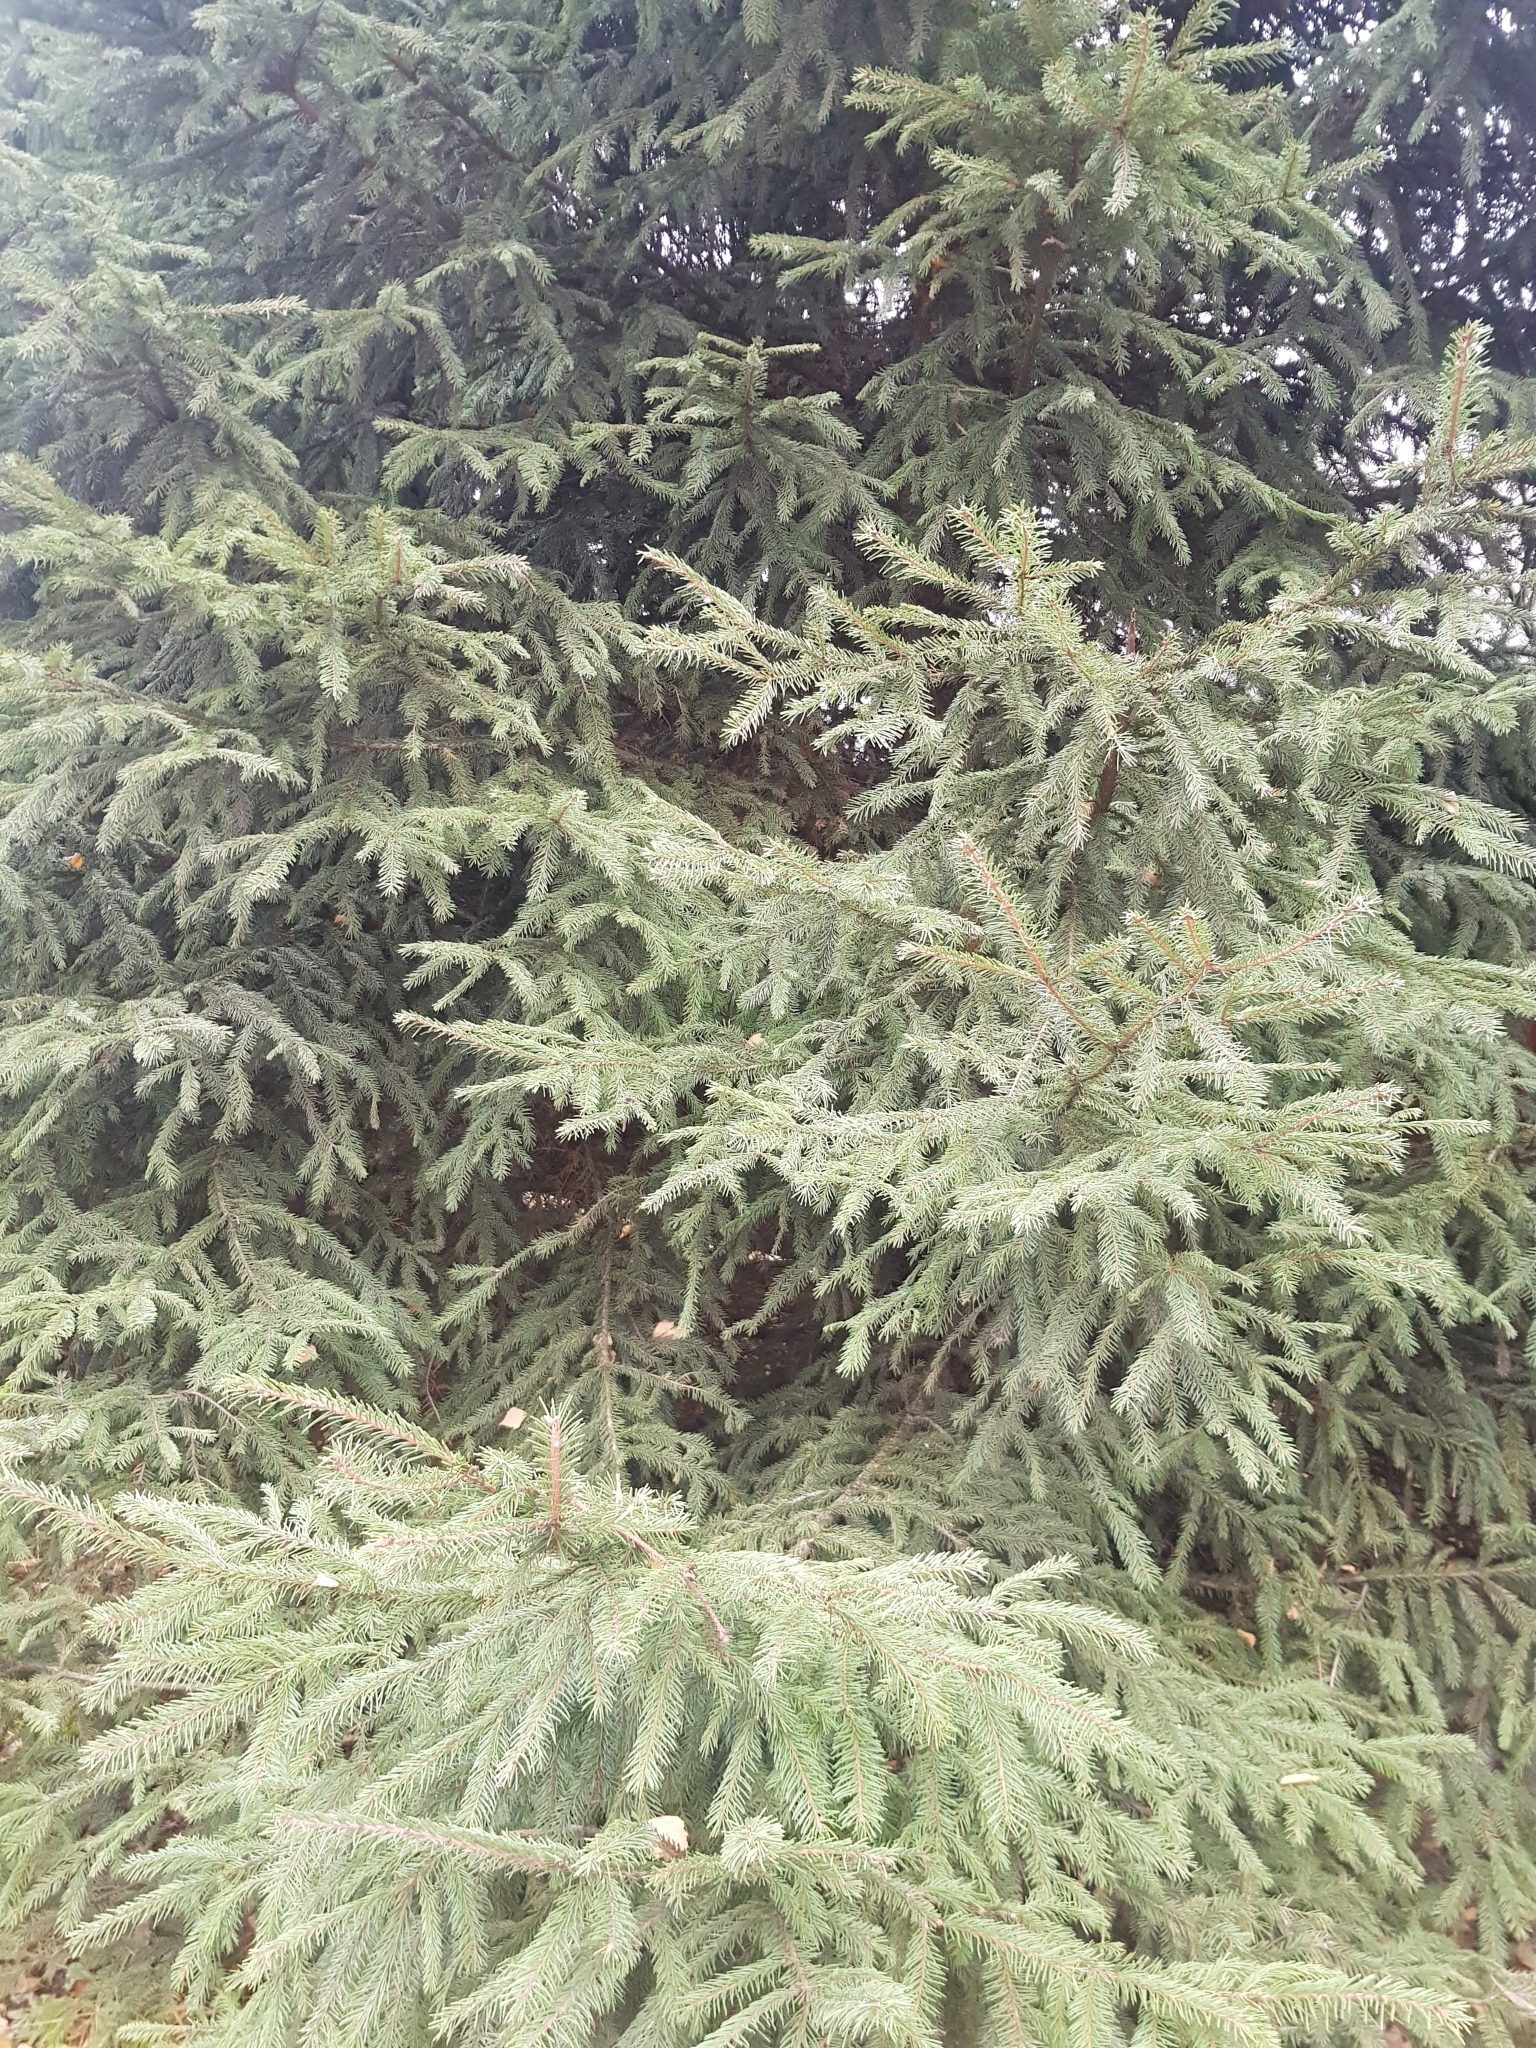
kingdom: Plantae
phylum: Tracheophyta
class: Pinopsida
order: Pinales
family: Pinaceae
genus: Picea
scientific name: Picea abies
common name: Norway spruce
